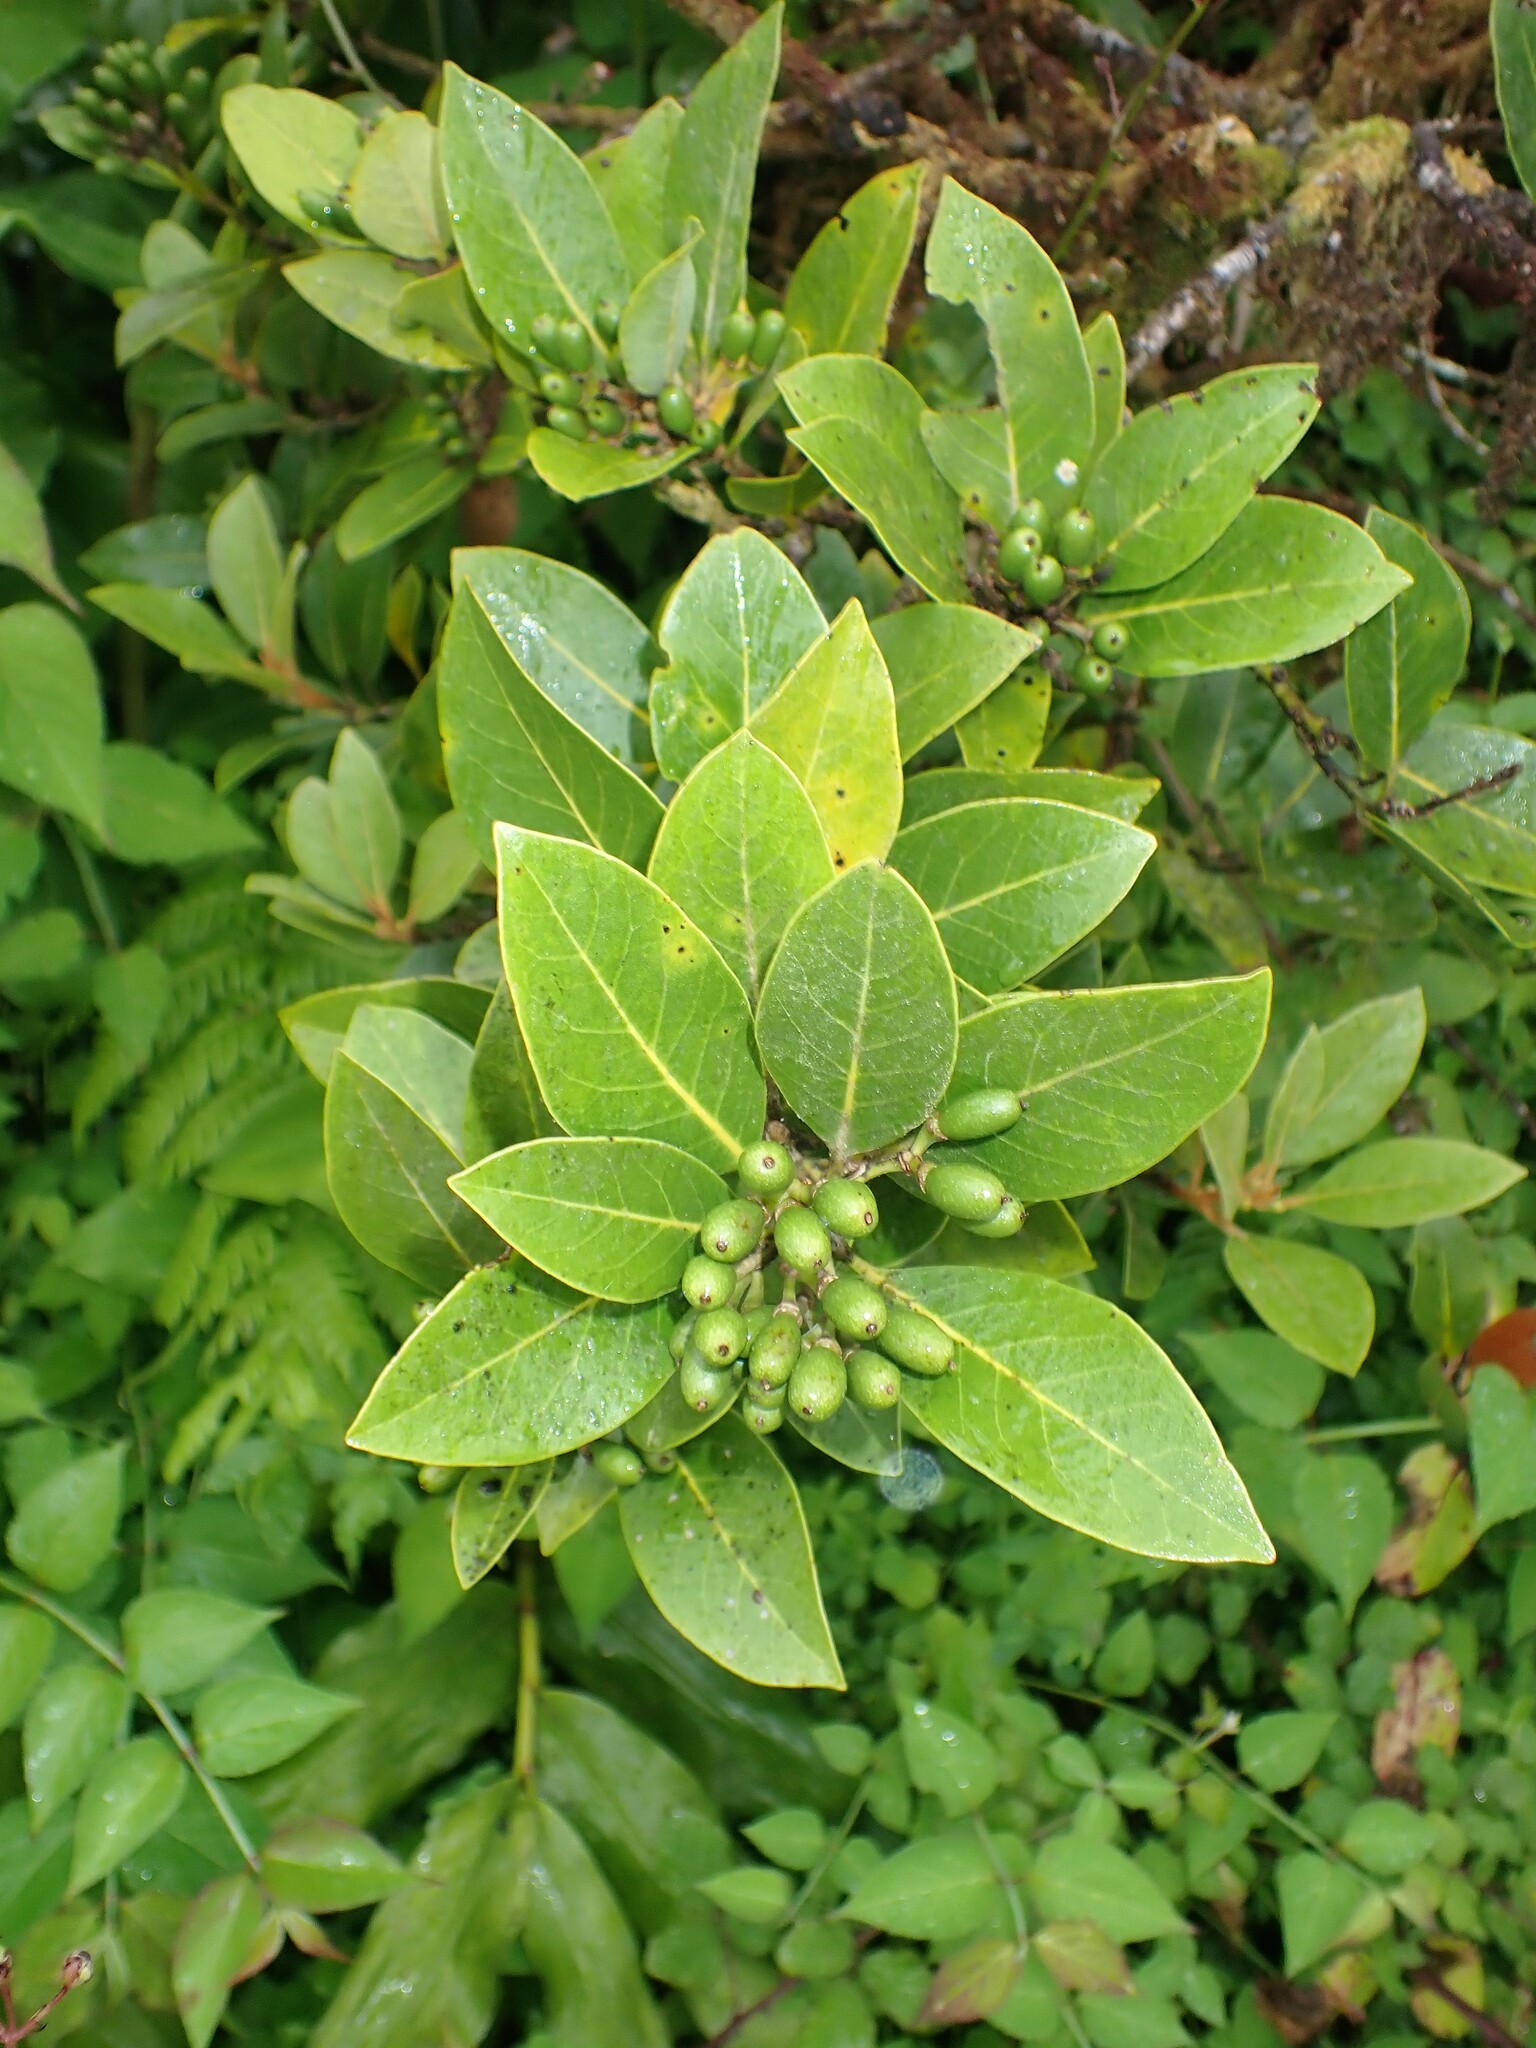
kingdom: Plantae
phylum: Tracheophyta
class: Magnoliopsida
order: Laurales
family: Lauraceae
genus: Laurus
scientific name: Laurus azorica
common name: Macaronesian laurel
